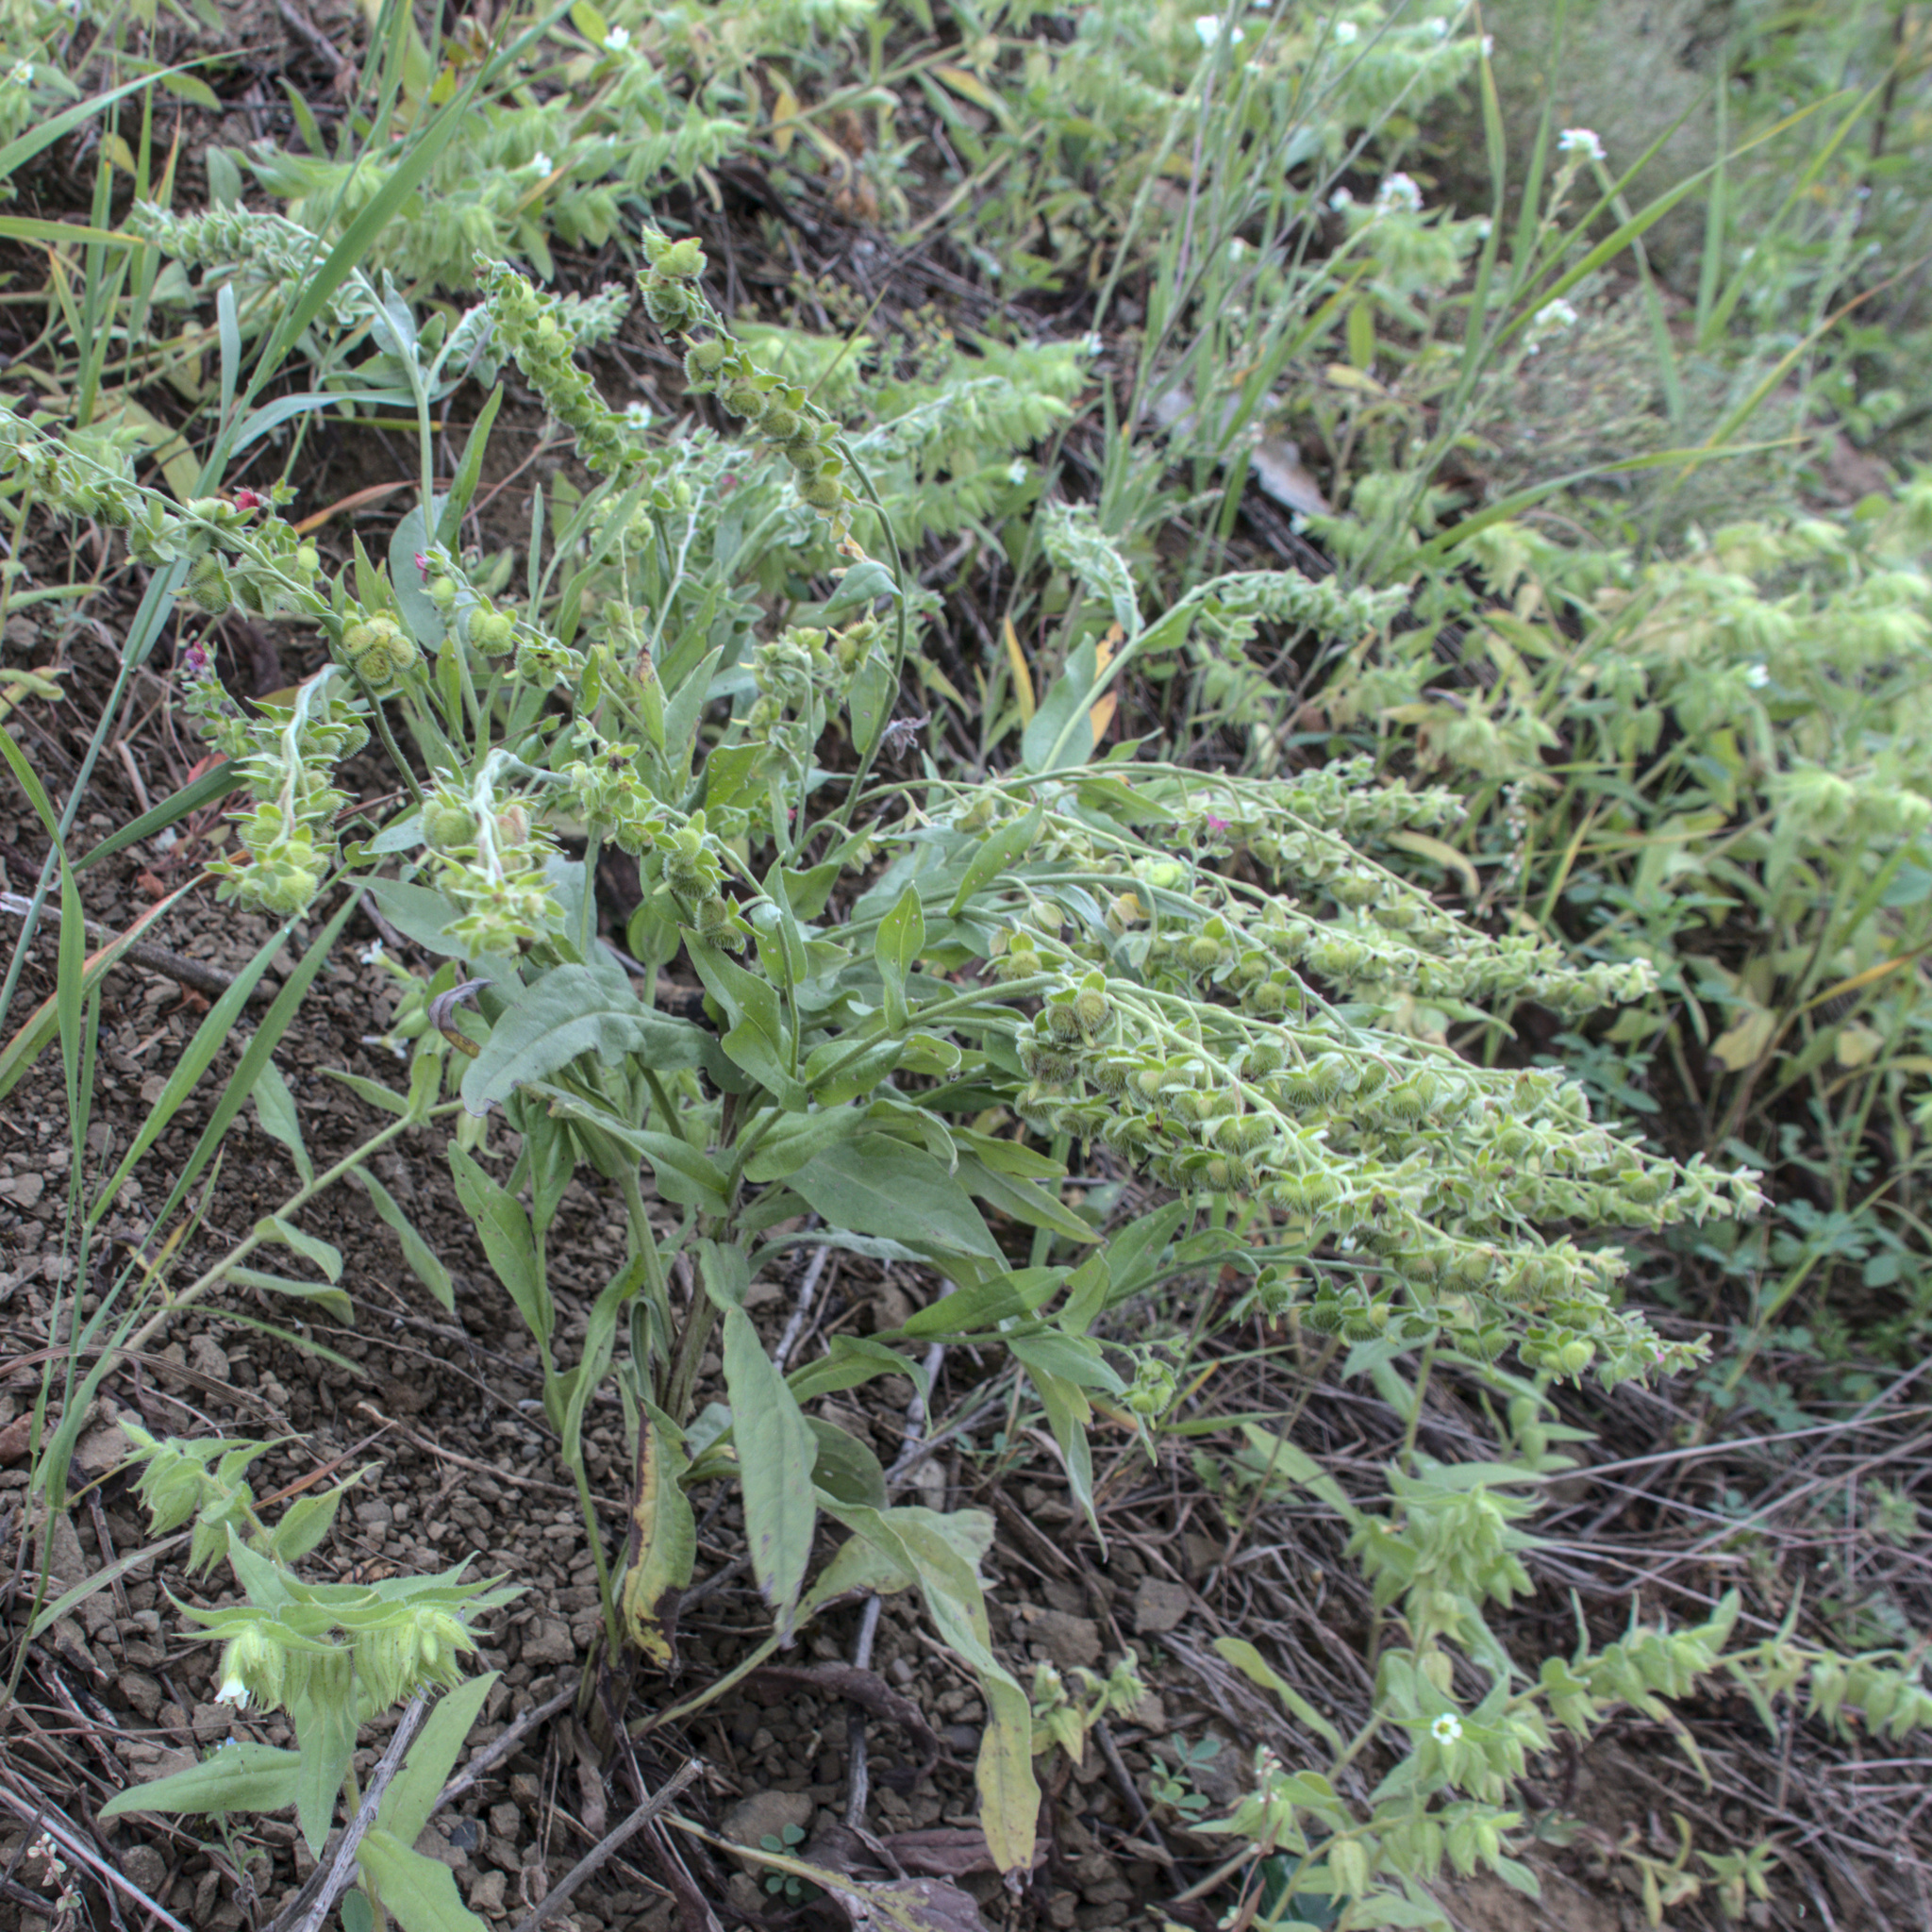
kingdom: Plantae
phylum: Tracheophyta
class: Magnoliopsida
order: Boraginales
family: Boraginaceae
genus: Cynoglossum
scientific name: Cynoglossum officinale
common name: Hound's-tongue
